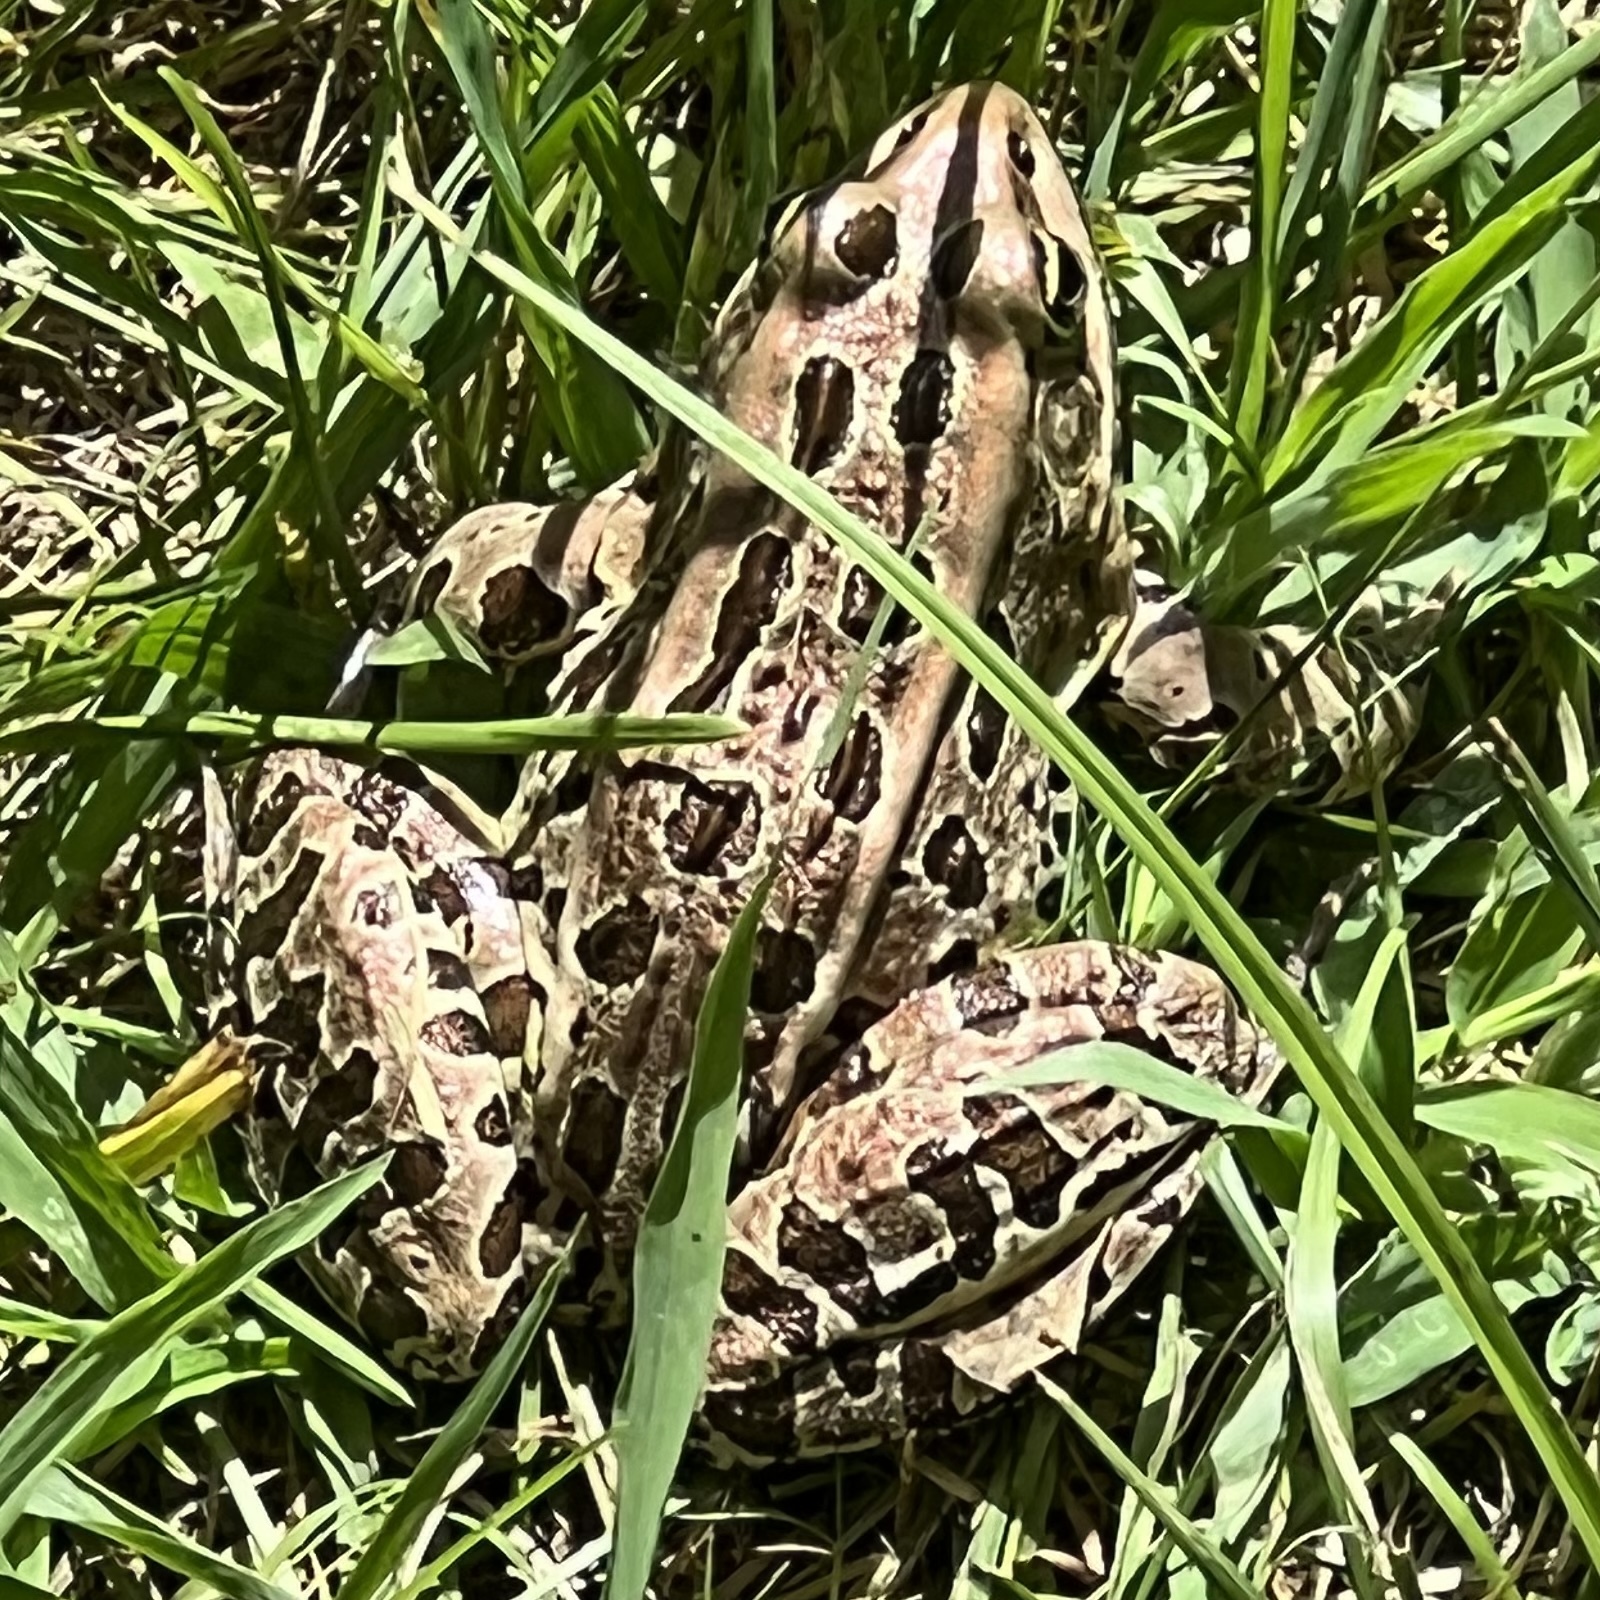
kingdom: Animalia
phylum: Chordata
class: Amphibia
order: Anura
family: Ranidae
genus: Lithobates
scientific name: Lithobates pipiens
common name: Northern leopard frog
